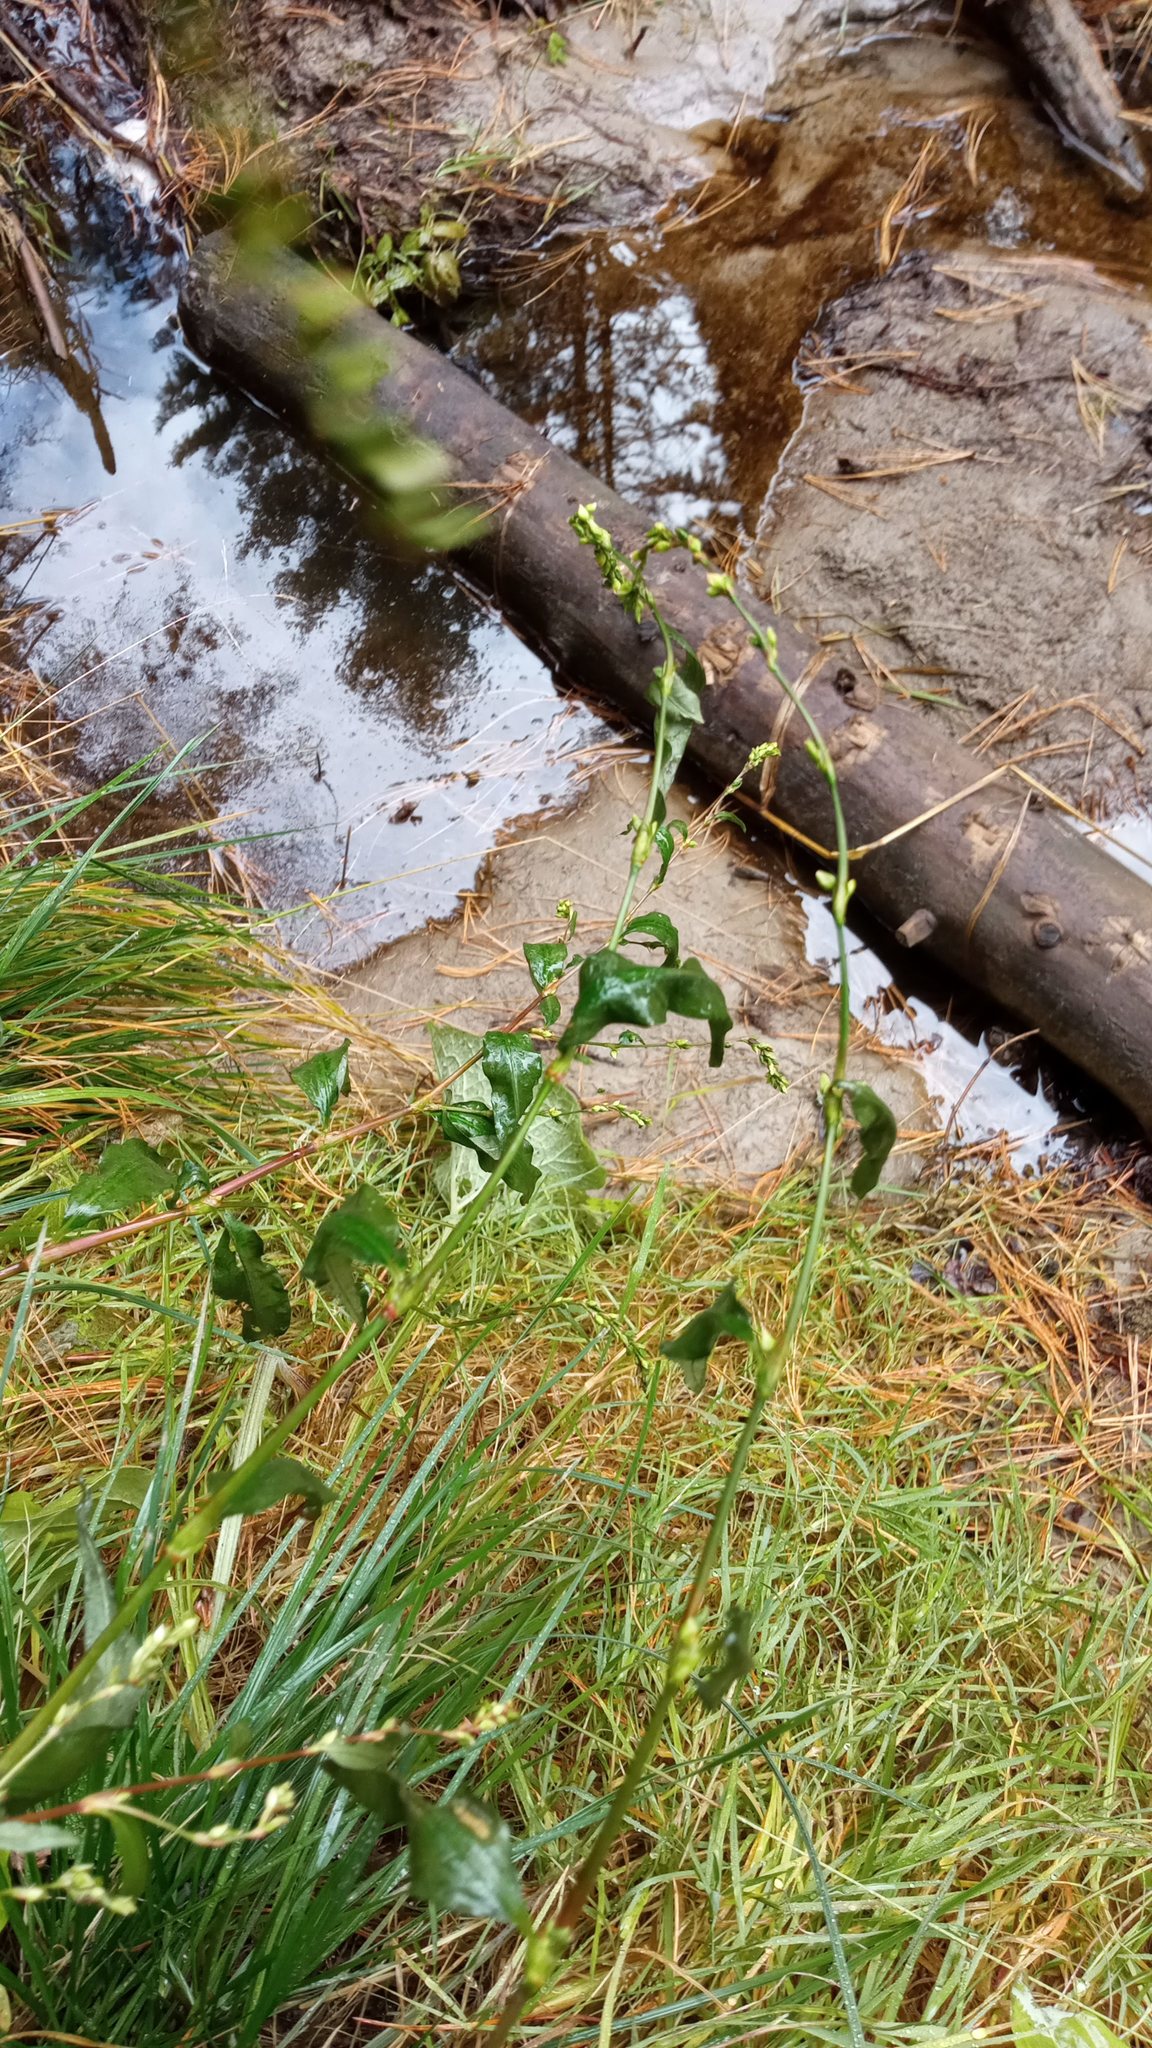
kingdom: Plantae
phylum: Tracheophyta
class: Magnoliopsida
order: Caryophyllales
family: Polygonaceae
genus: Persicaria
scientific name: Persicaria hydropiper
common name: Water-pepper
